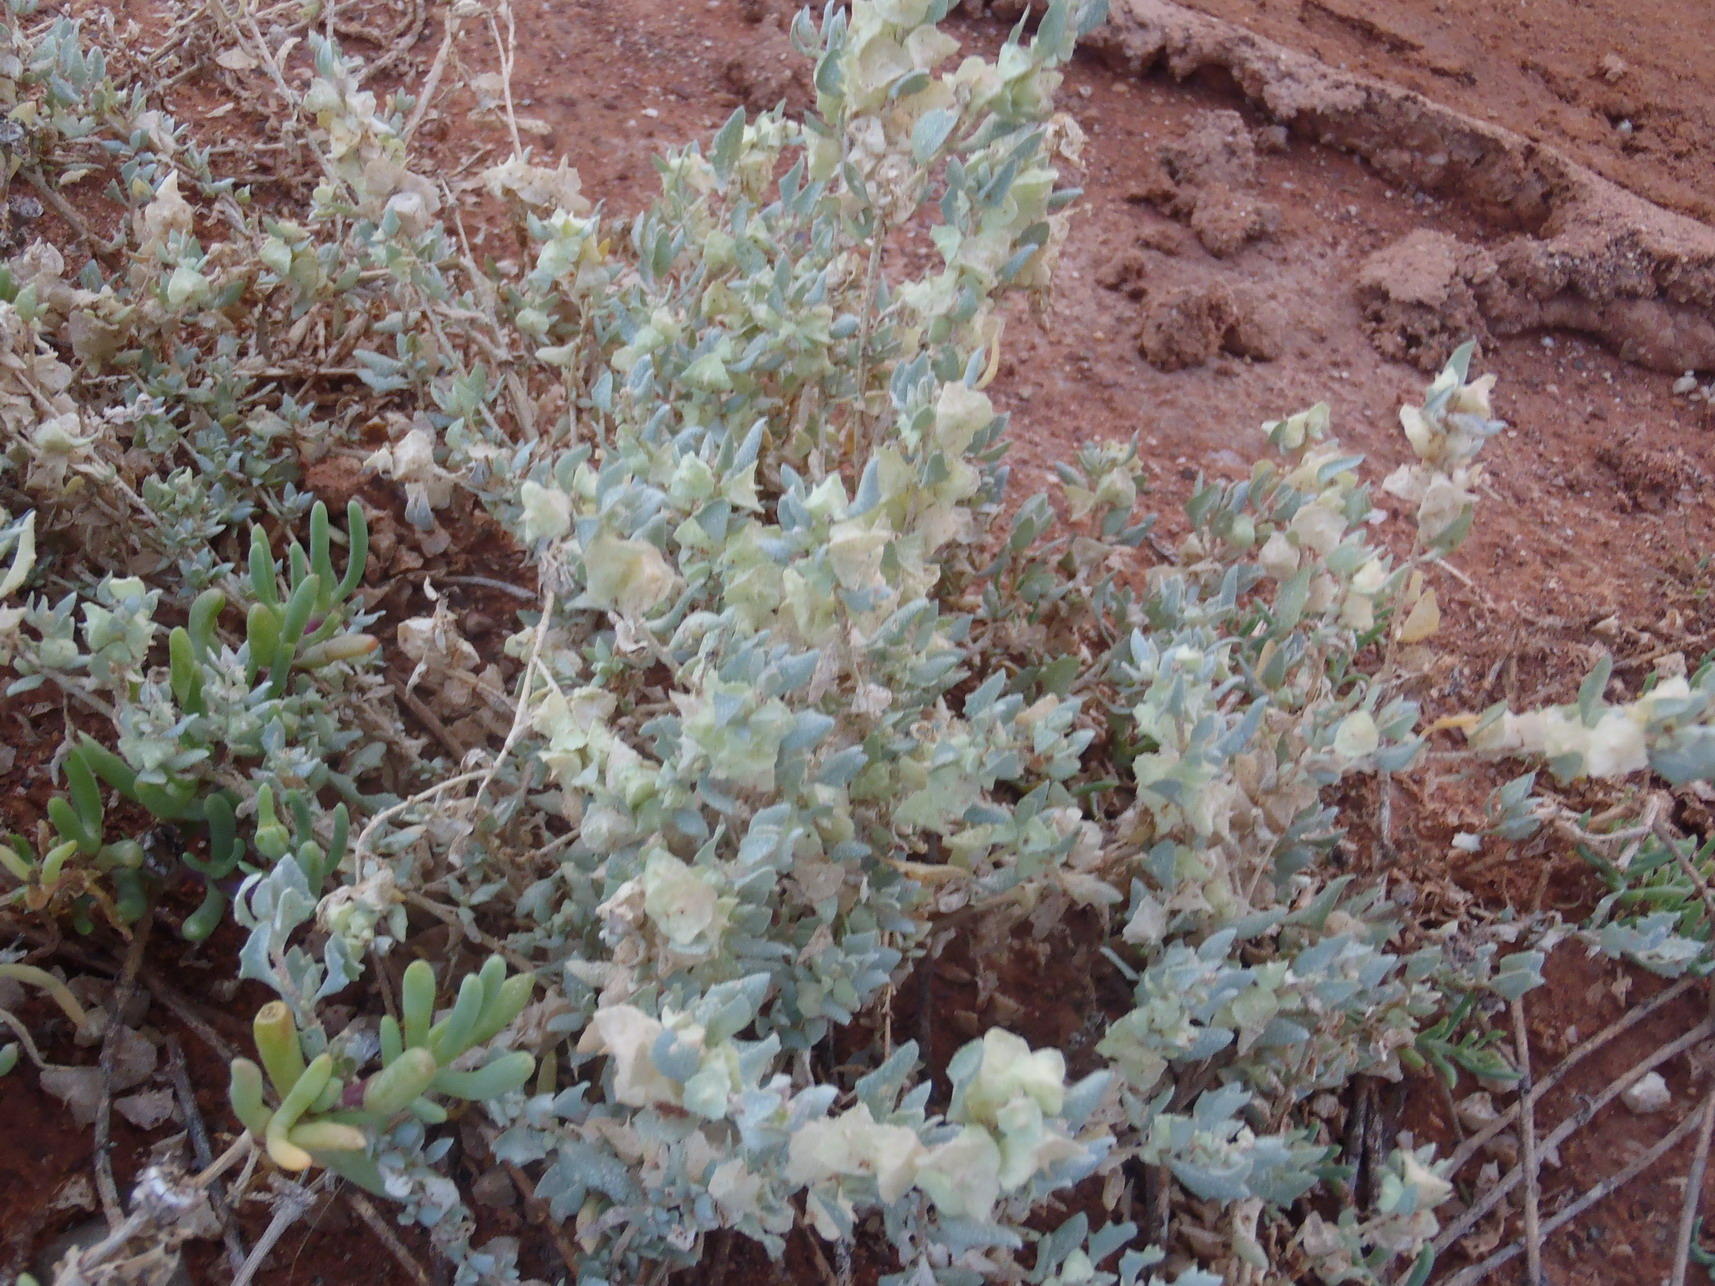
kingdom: Plantae
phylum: Tracheophyta
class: Magnoliopsida
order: Caryophyllales
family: Amaranthaceae
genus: Atriplex
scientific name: Atriplex lindleyi
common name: Lindley's saltbush
